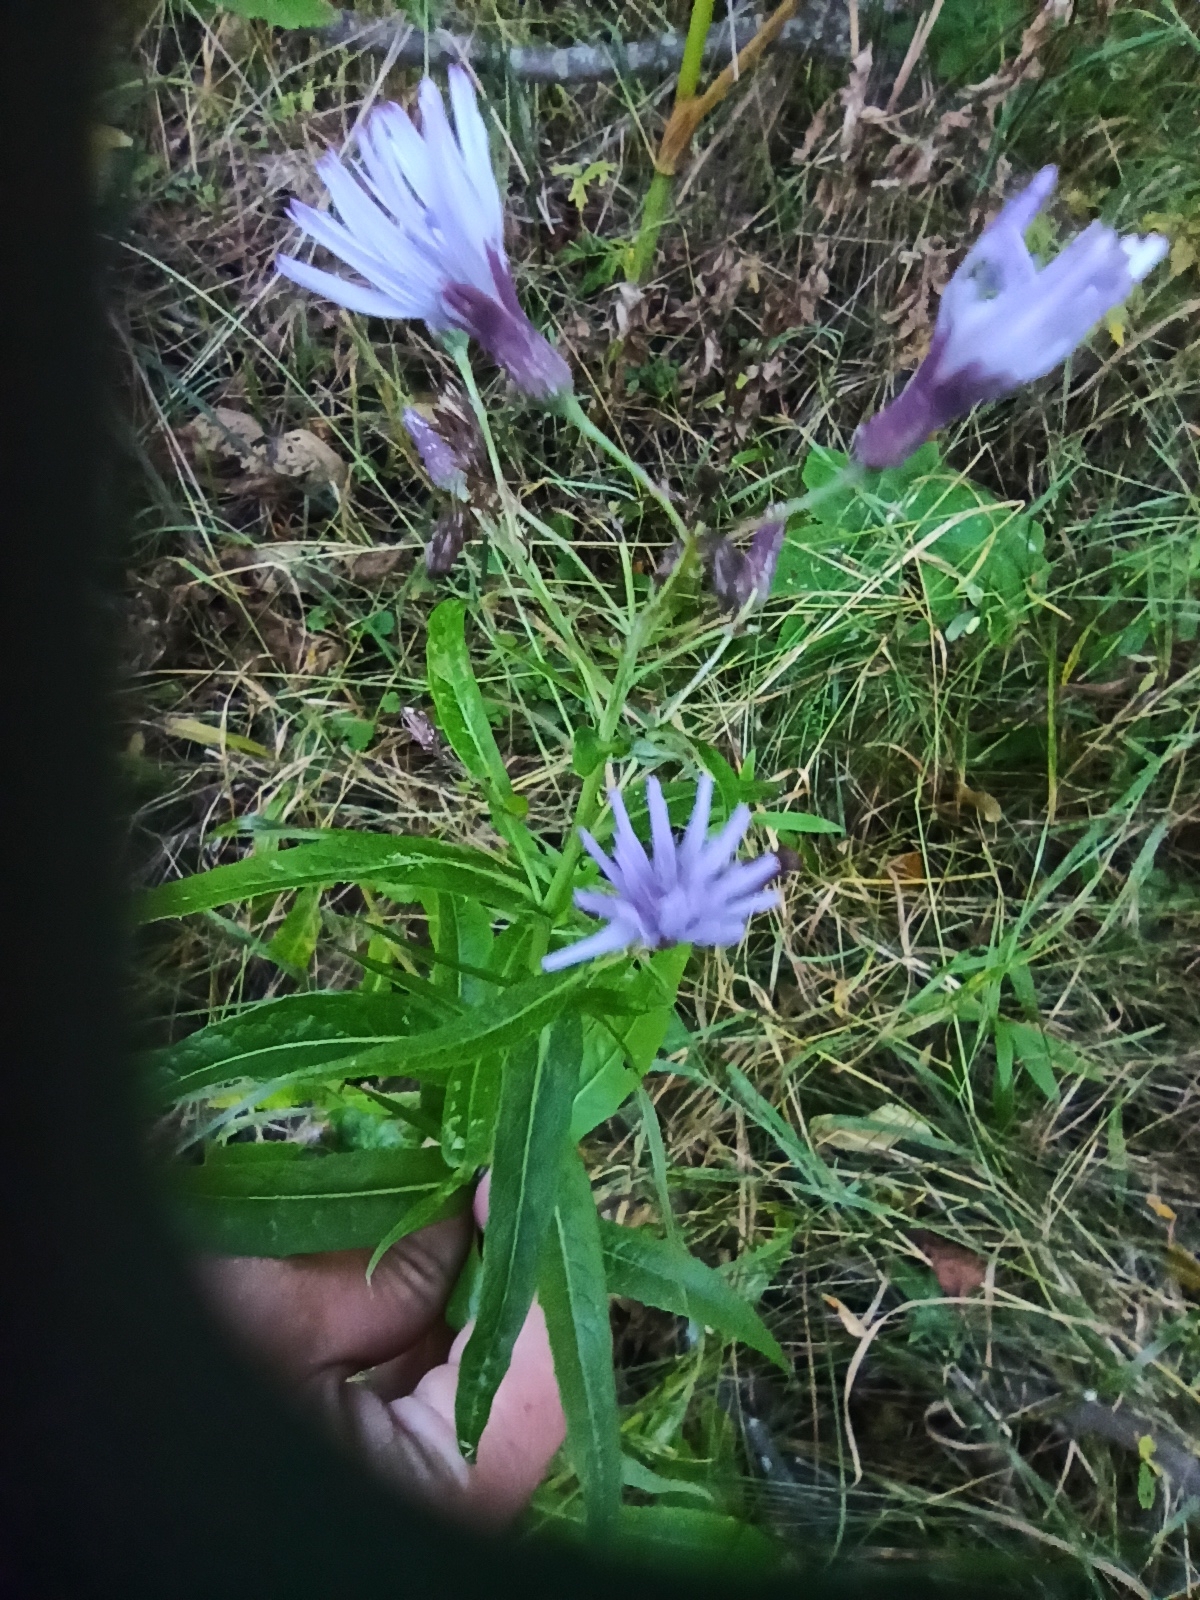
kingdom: Plantae
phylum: Tracheophyta
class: Magnoliopsida
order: Asterales
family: Asteraceae
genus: Lactuca
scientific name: Lactuca sibirica
